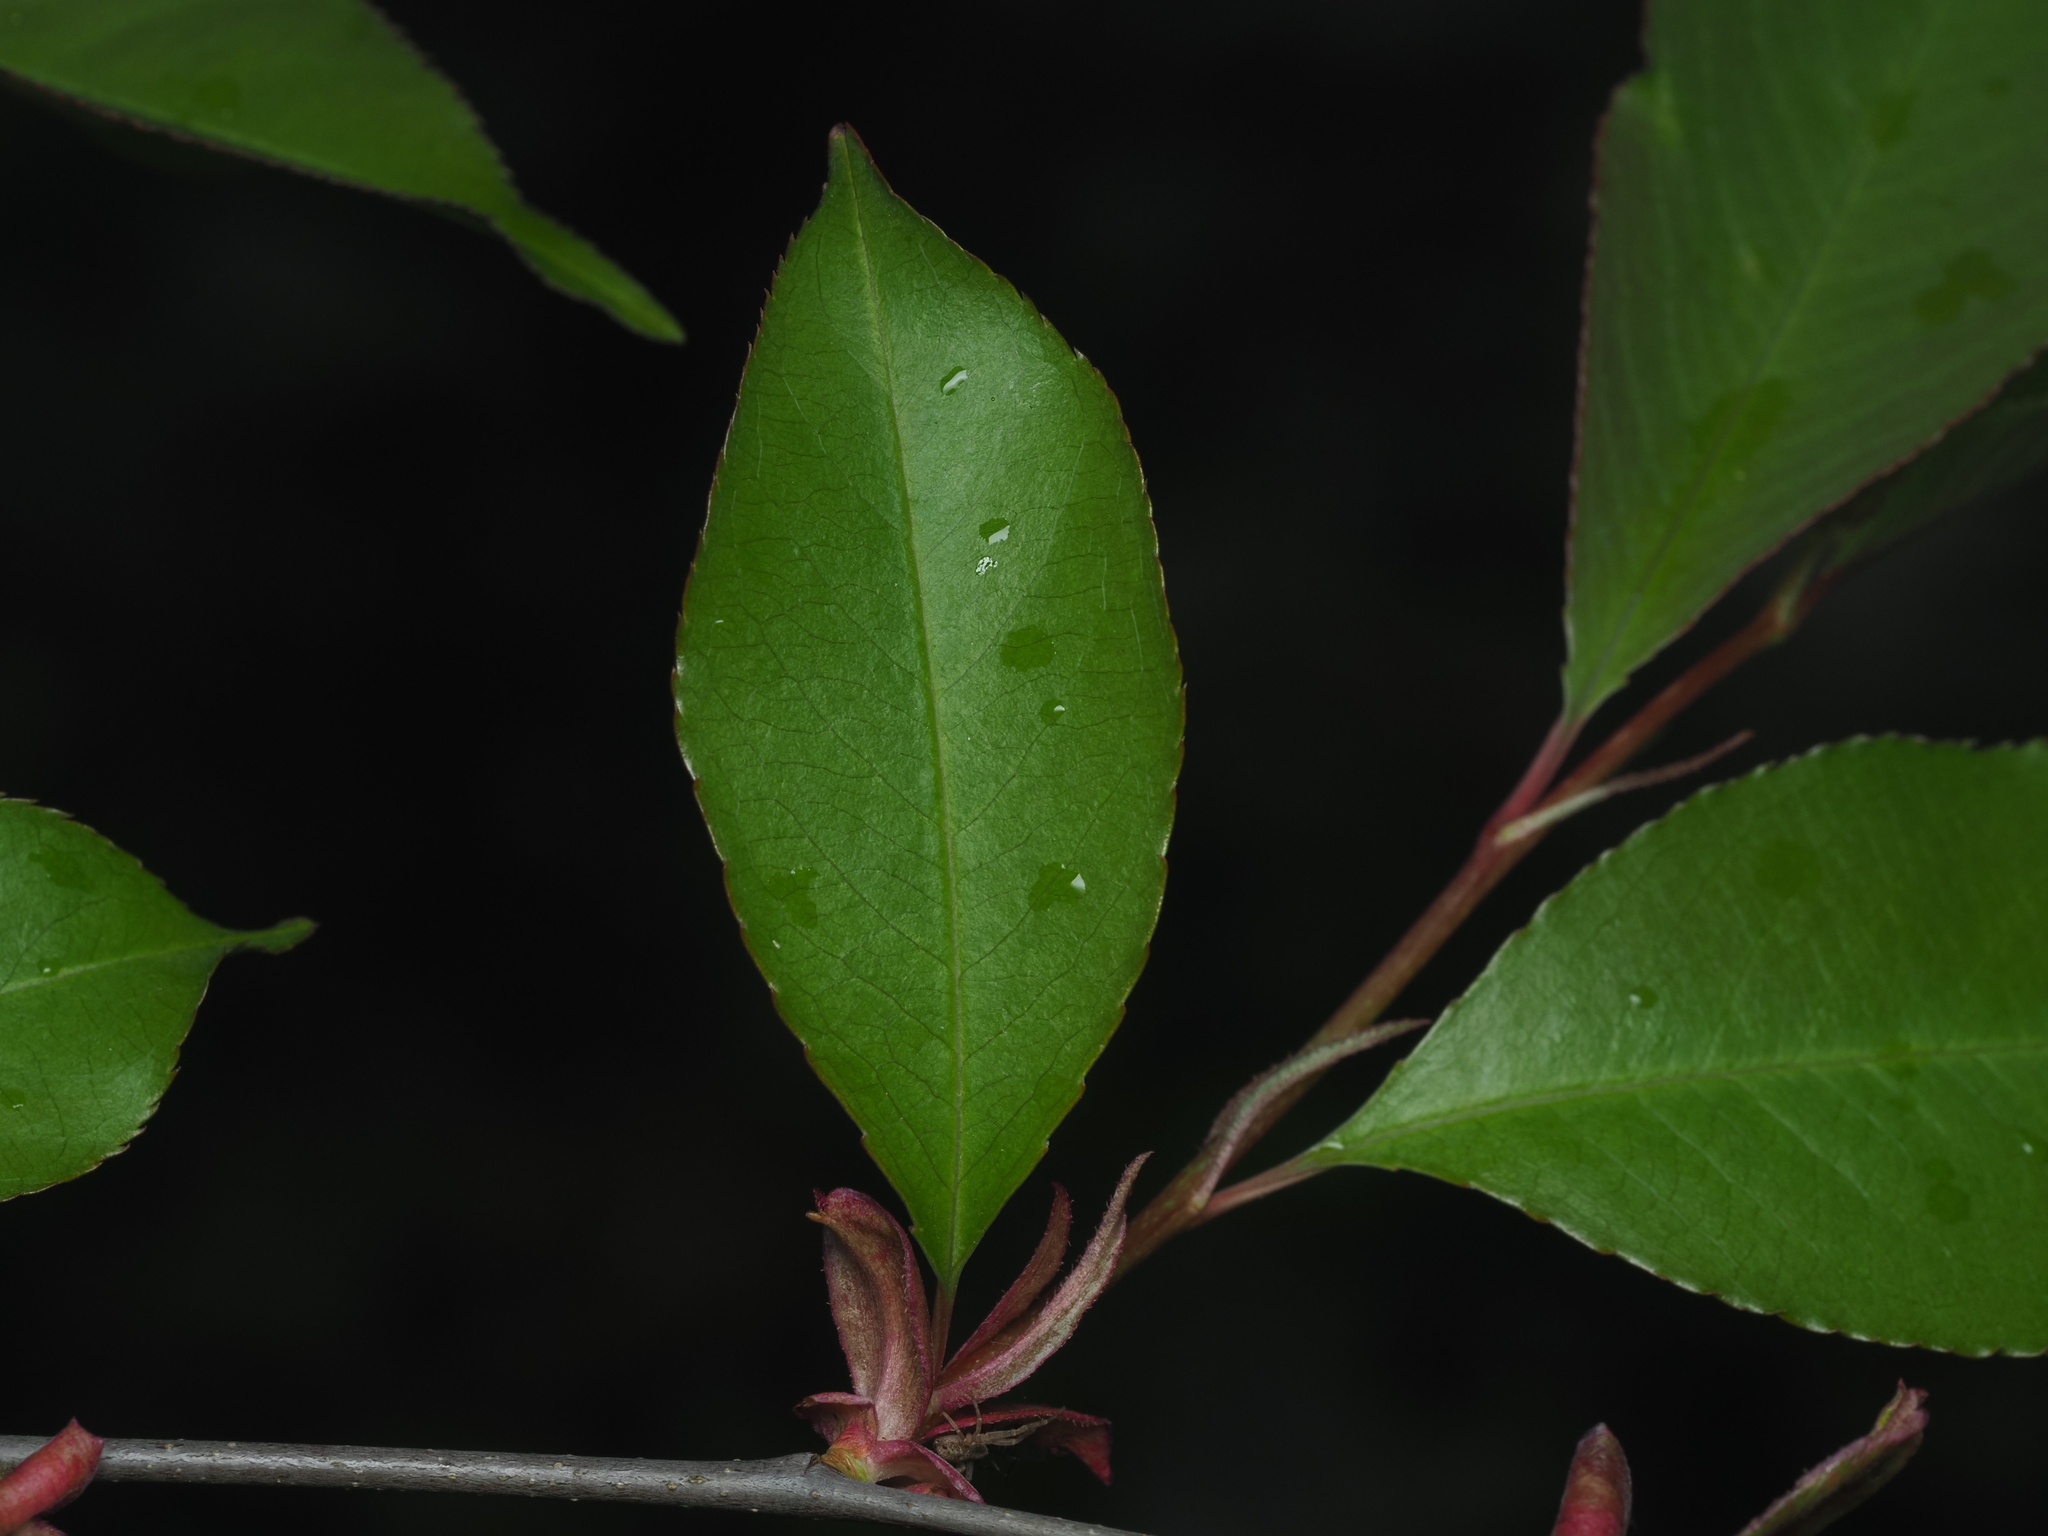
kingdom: Plantae
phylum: Tracheophyta
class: Magnoliopsida
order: Rosales
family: Rosaceae
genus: Prunus
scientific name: Prunus serotina
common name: Black cherry
